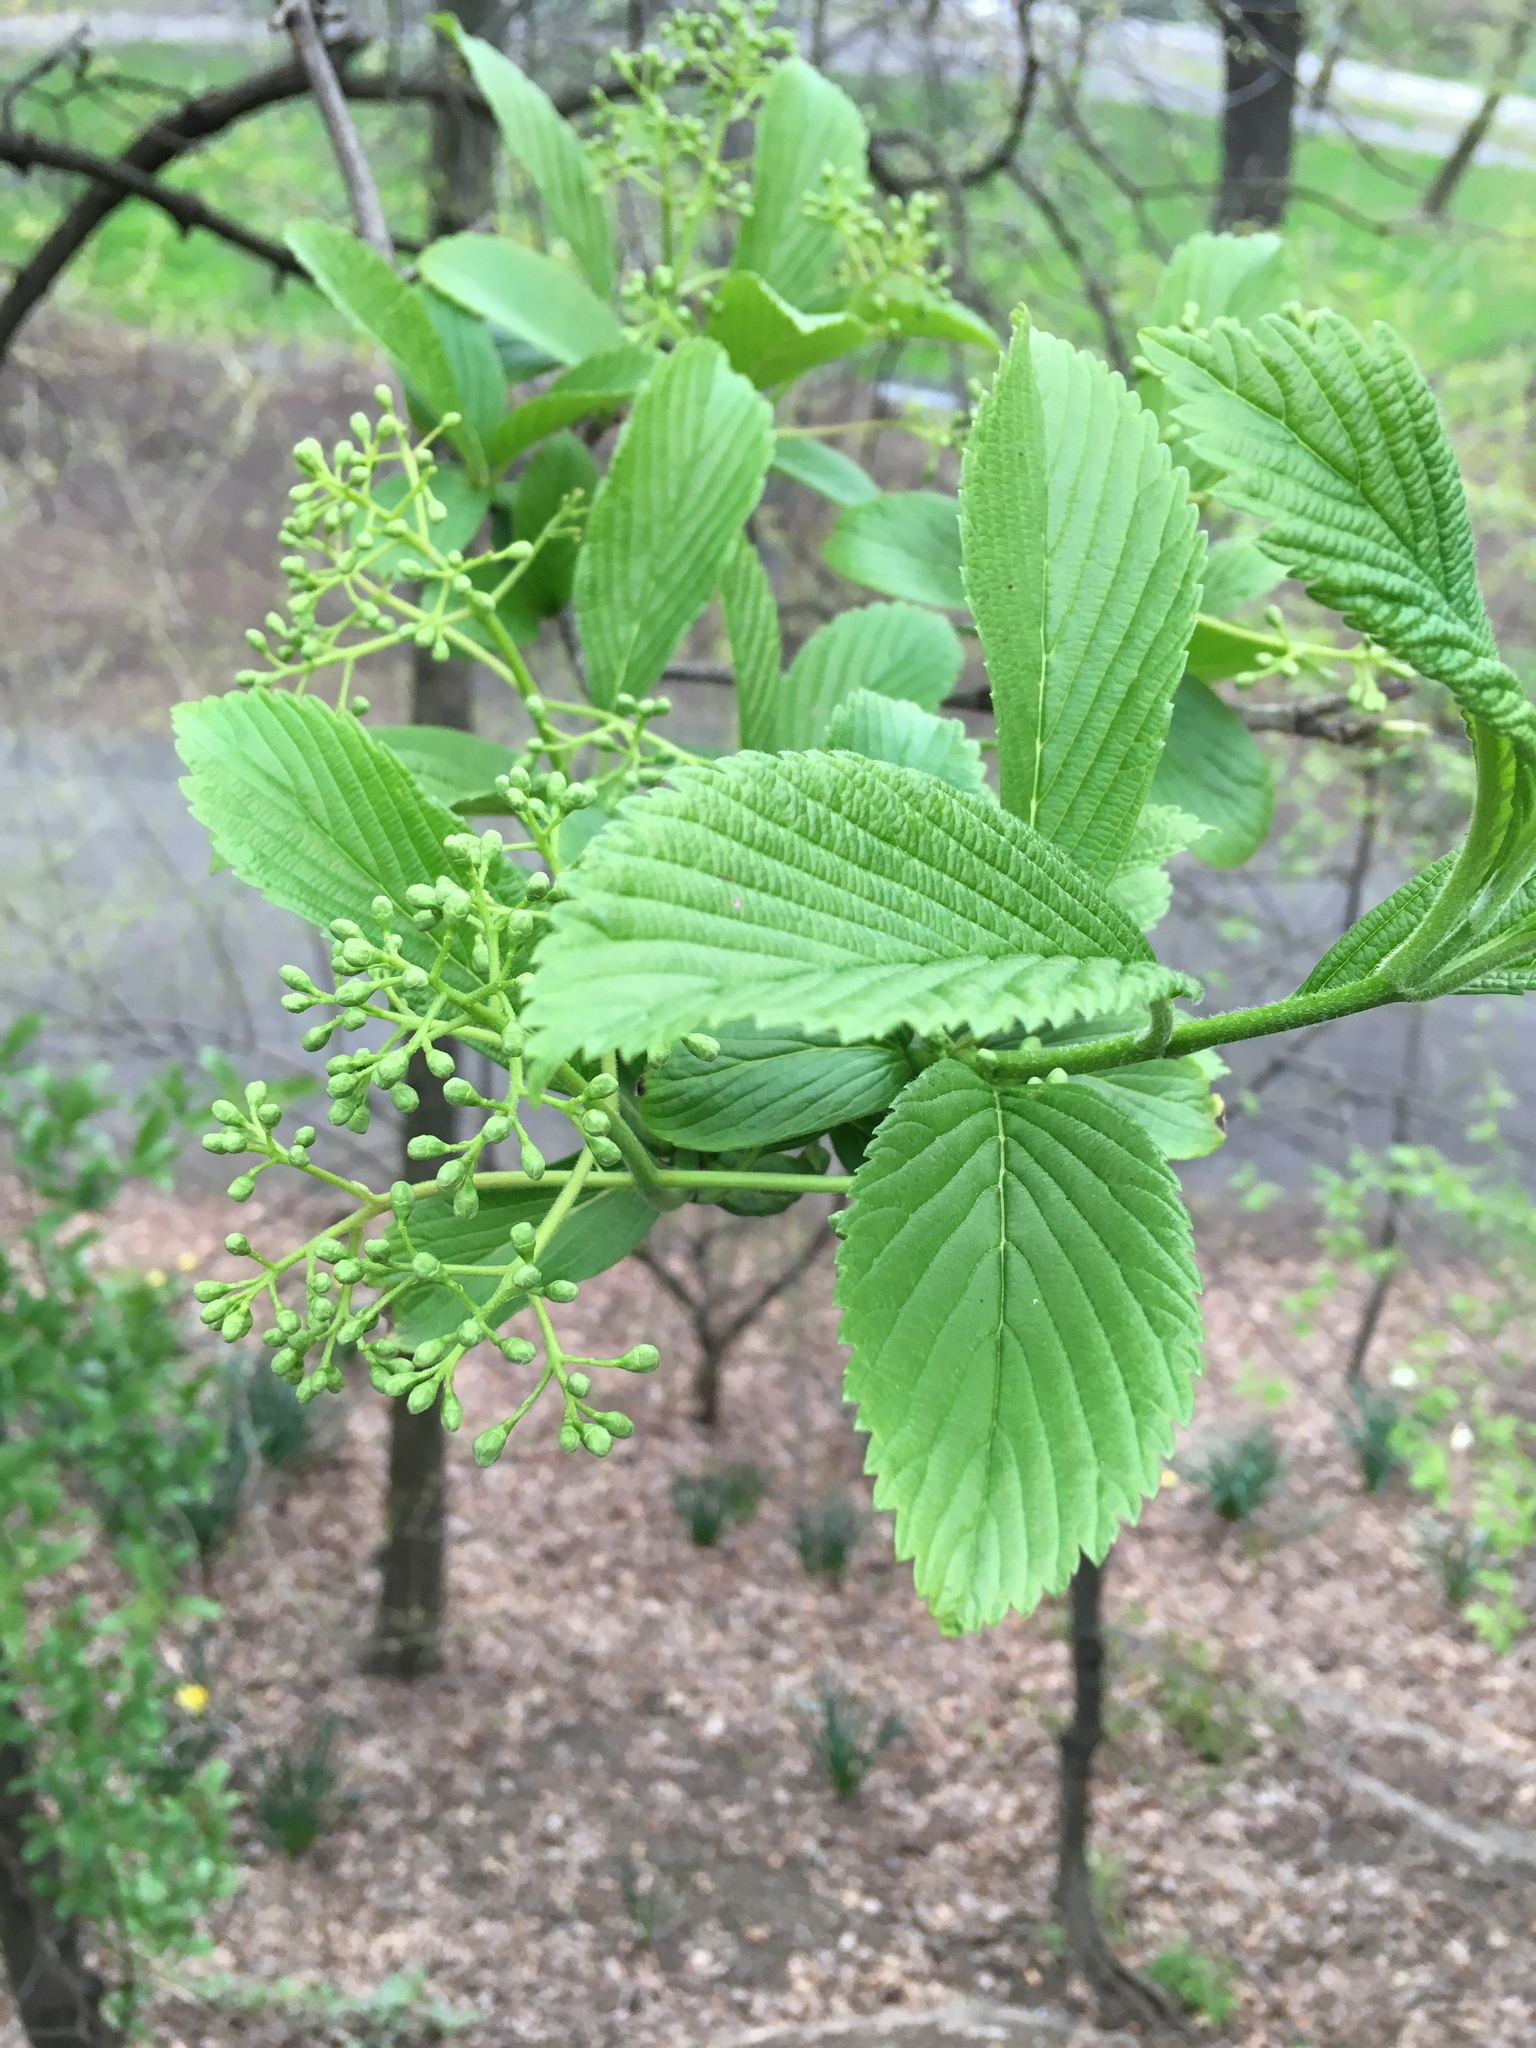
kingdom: Plantae
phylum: Tracheophyta
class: Magnoliopsida
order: Dipsacales
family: Viburnaceae
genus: Viburnum
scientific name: Viburnum sieboldii
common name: Siebold's arrowwood
